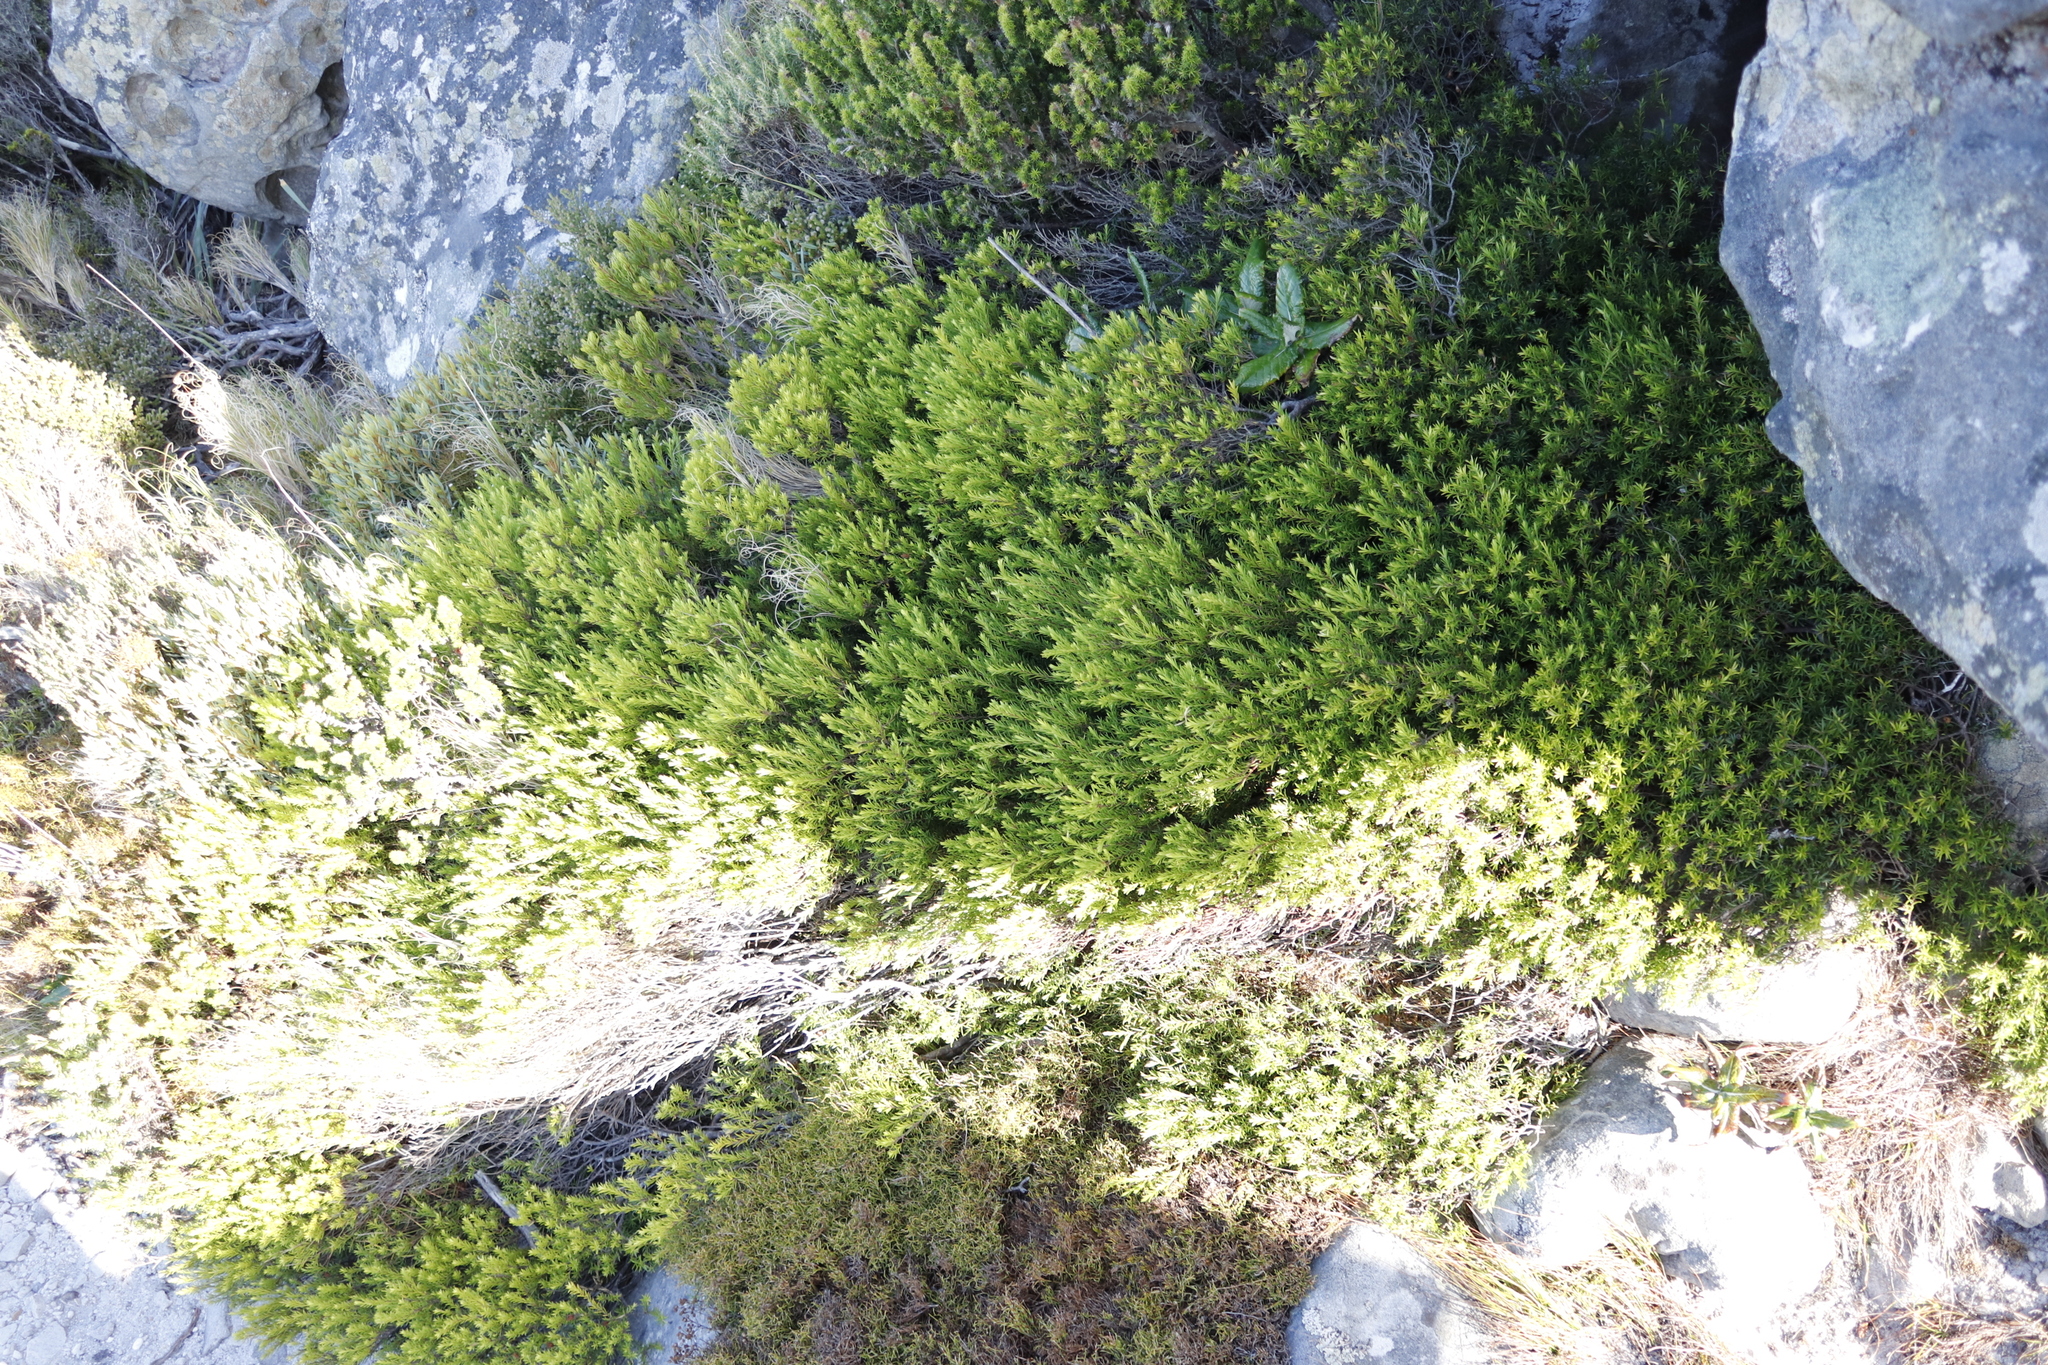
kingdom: Plantae
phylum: Tracheophyta
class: Magnoliopsida
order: Sapindales
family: Rutaceae
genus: Coleonema
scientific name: Coleonema album
